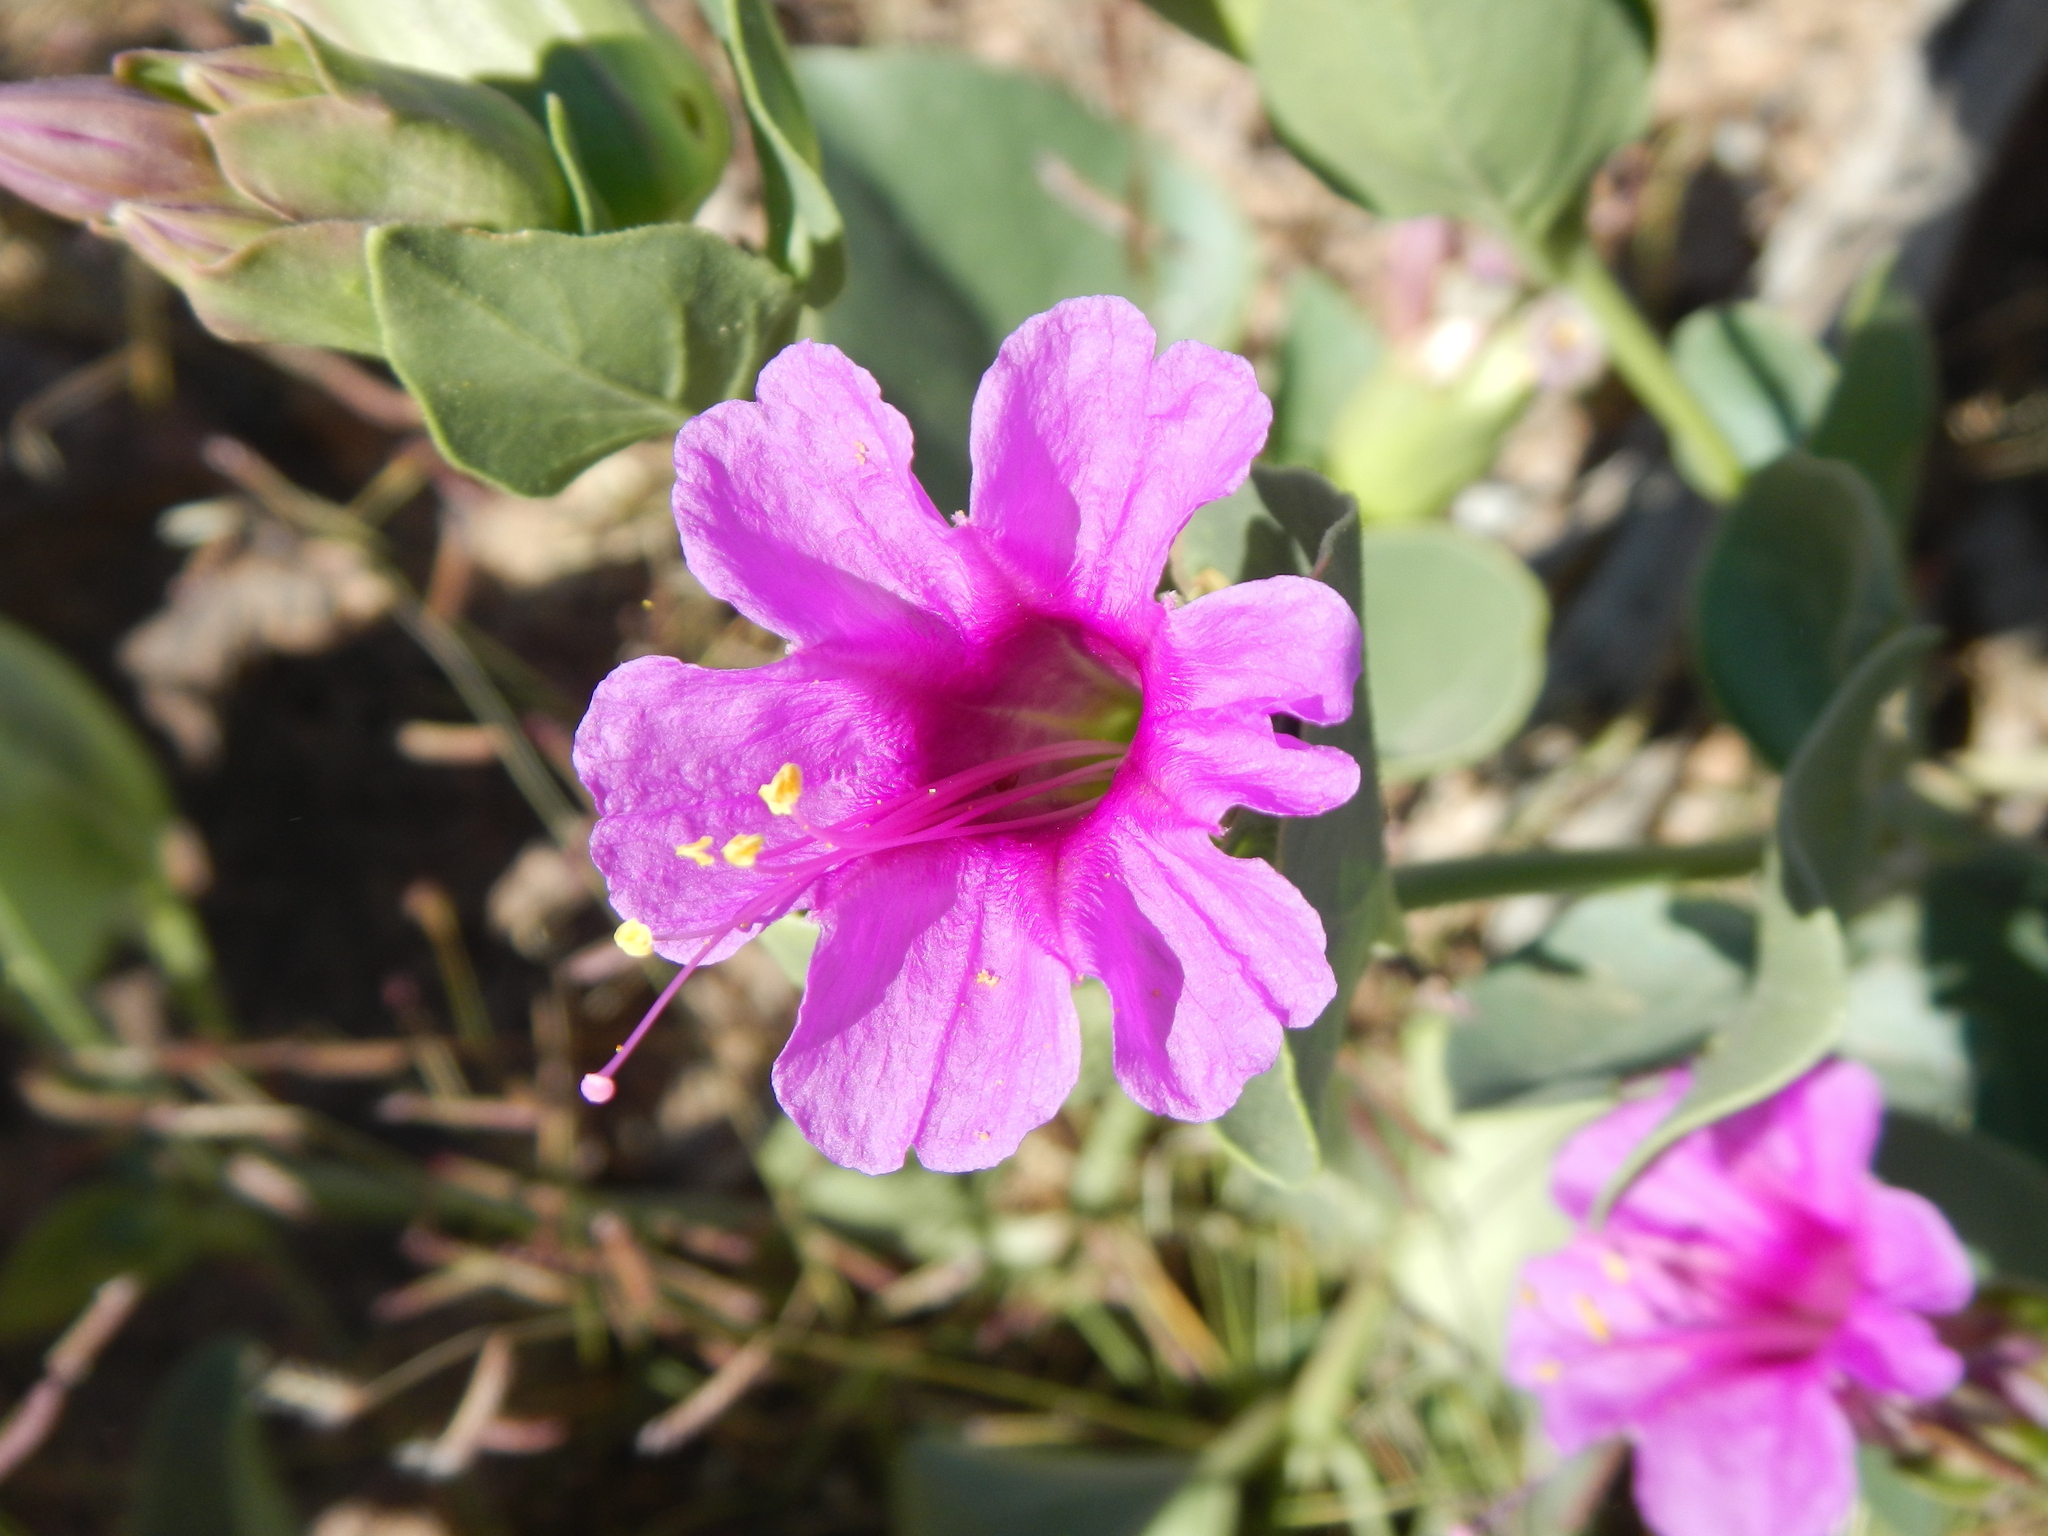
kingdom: Plantae
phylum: Tracheophyta
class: Magnoliopsida
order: Caryophyllales
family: Nyctaginaceae
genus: Mirabilis
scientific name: Mirabilis multiflora
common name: Froebel's four-o'clock
